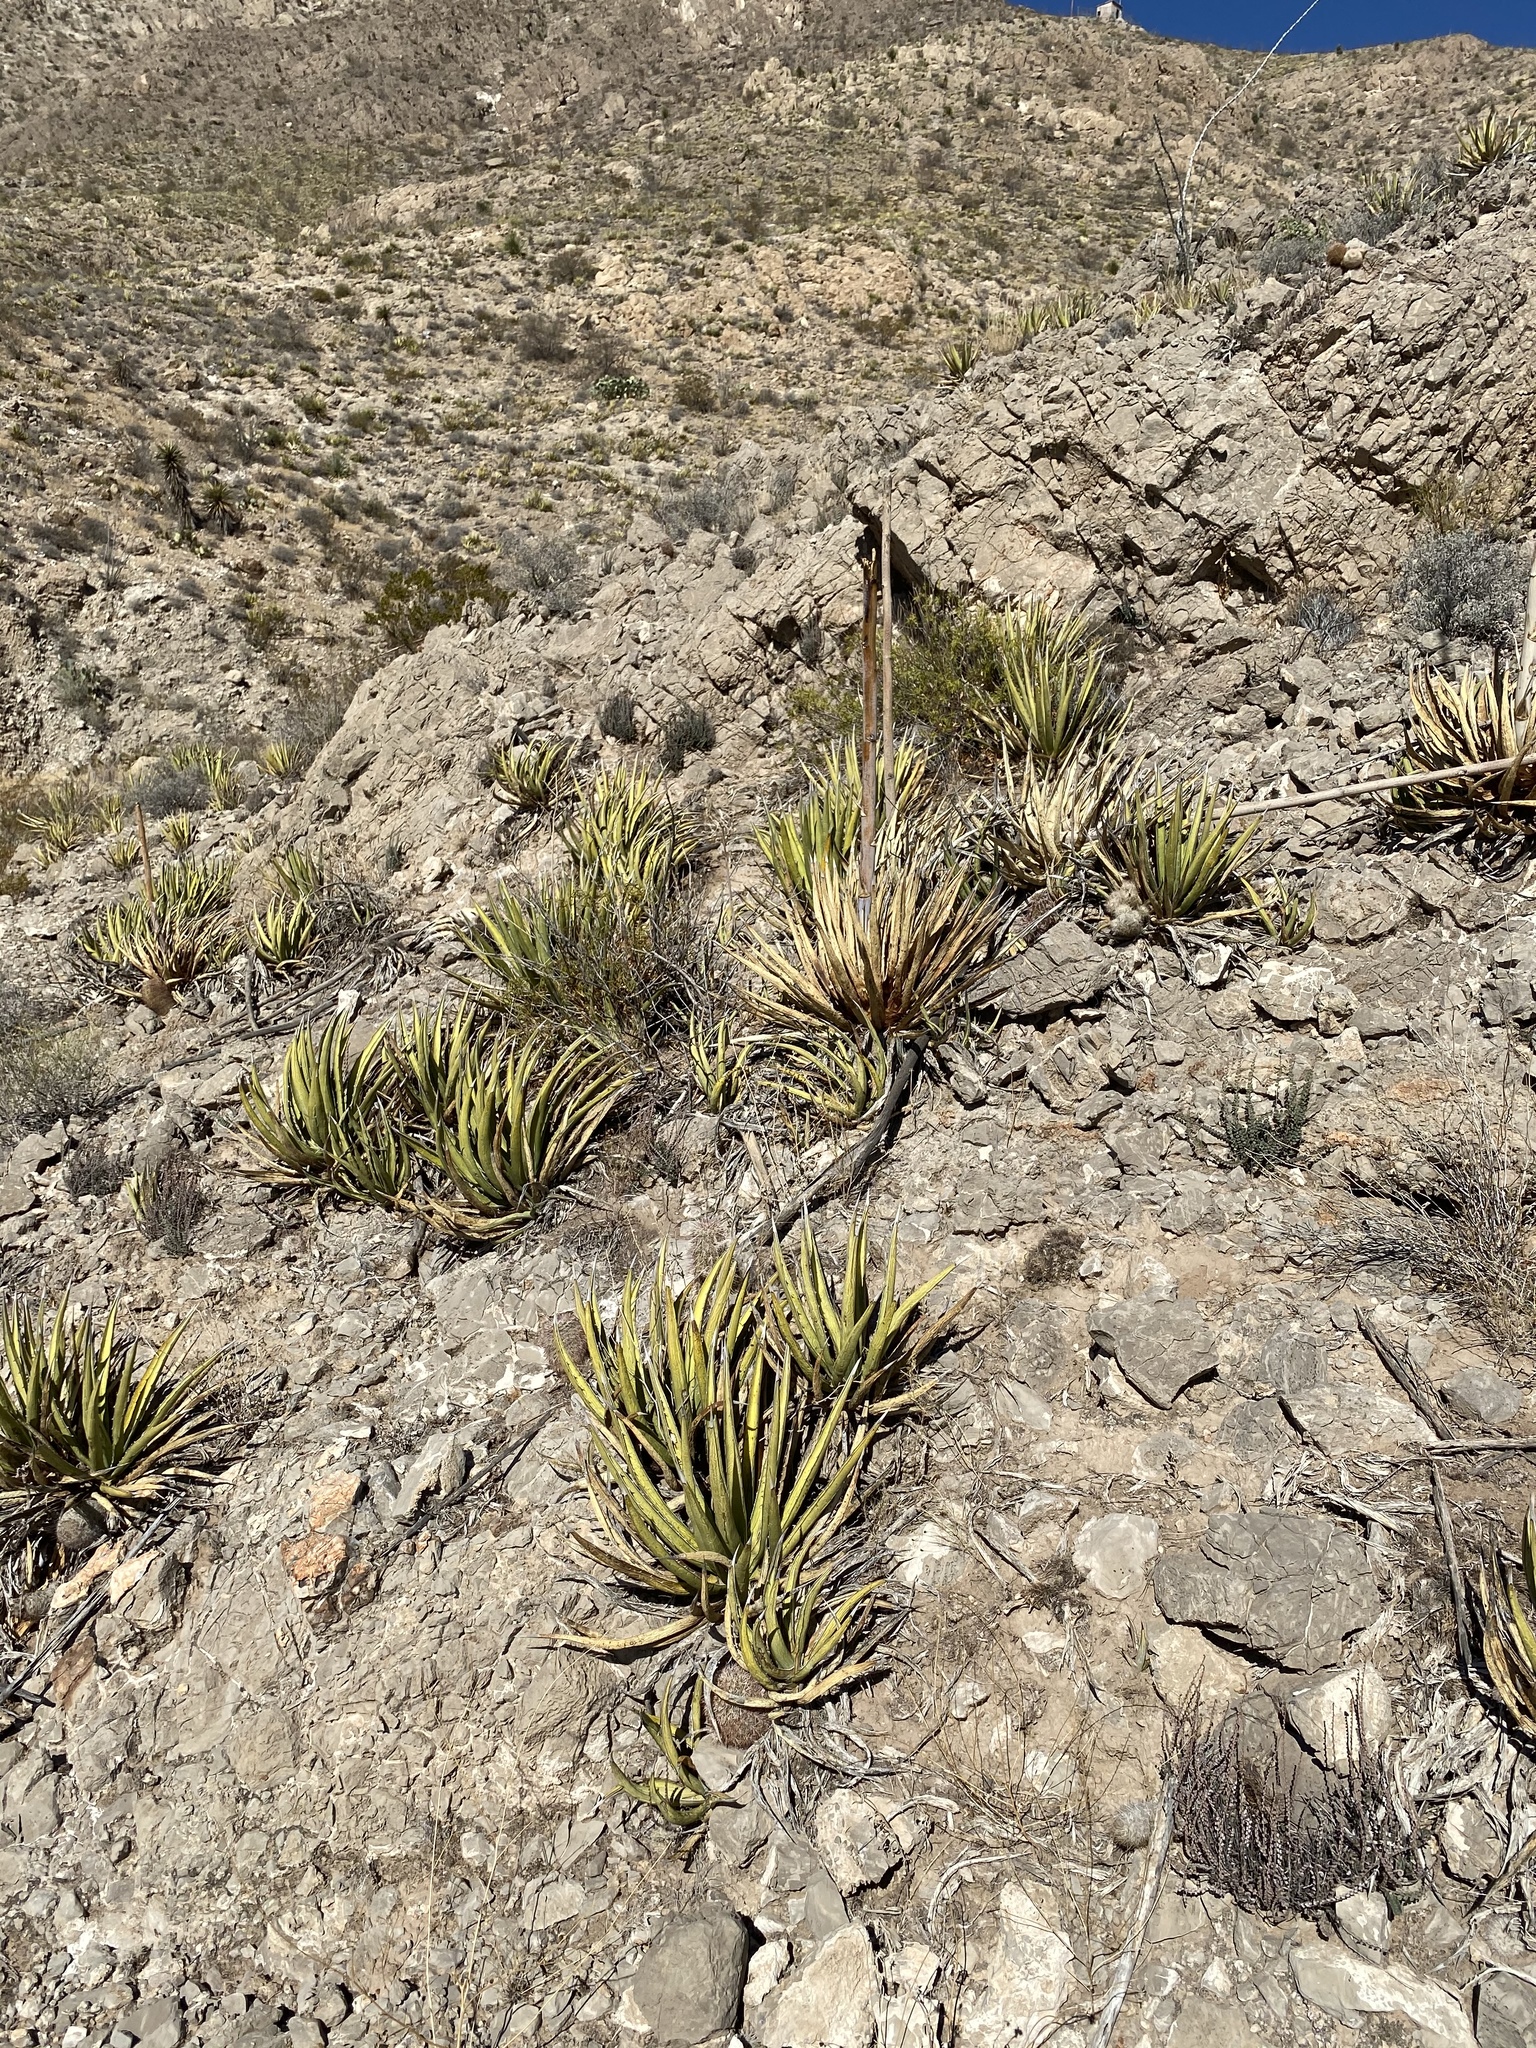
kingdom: Plantae
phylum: Tracheophyta
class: Liliopsida
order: Asparagales
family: Asparagaceae
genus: Agave
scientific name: Agave lechuguilla
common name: Lecheguilla agave
